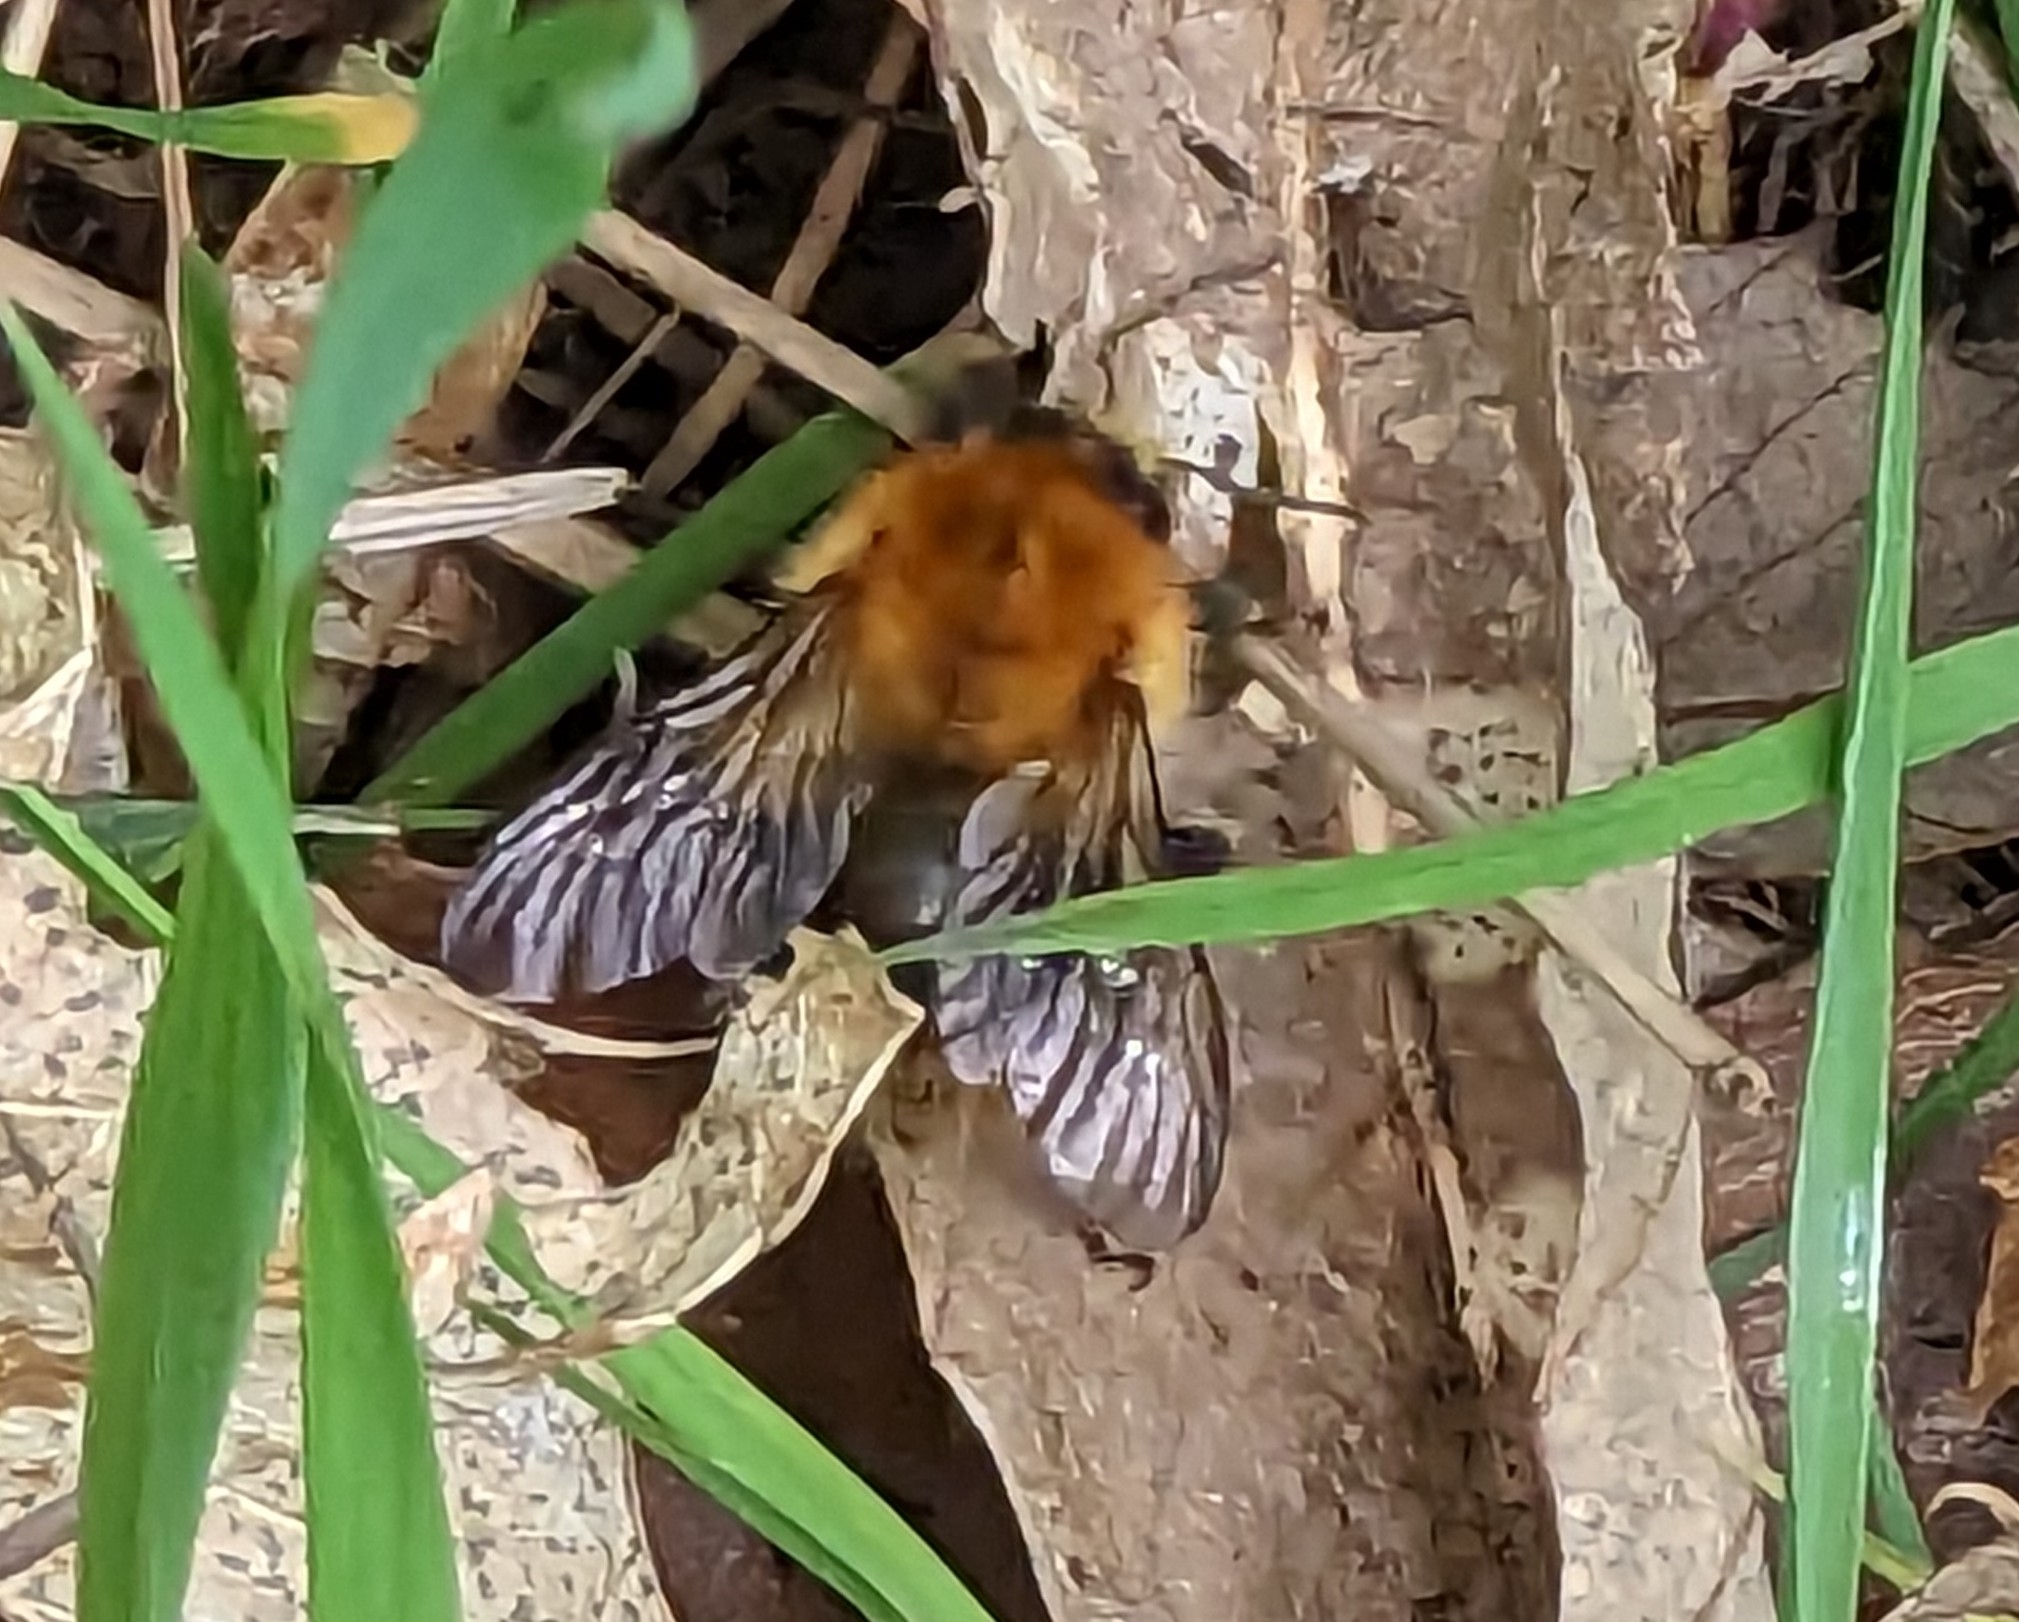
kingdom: Animalia
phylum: Arthropoda
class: Insecta
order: Hymenoptera
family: Apidae
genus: Bombus
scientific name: Bombus pascuorum
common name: Common carder bee
